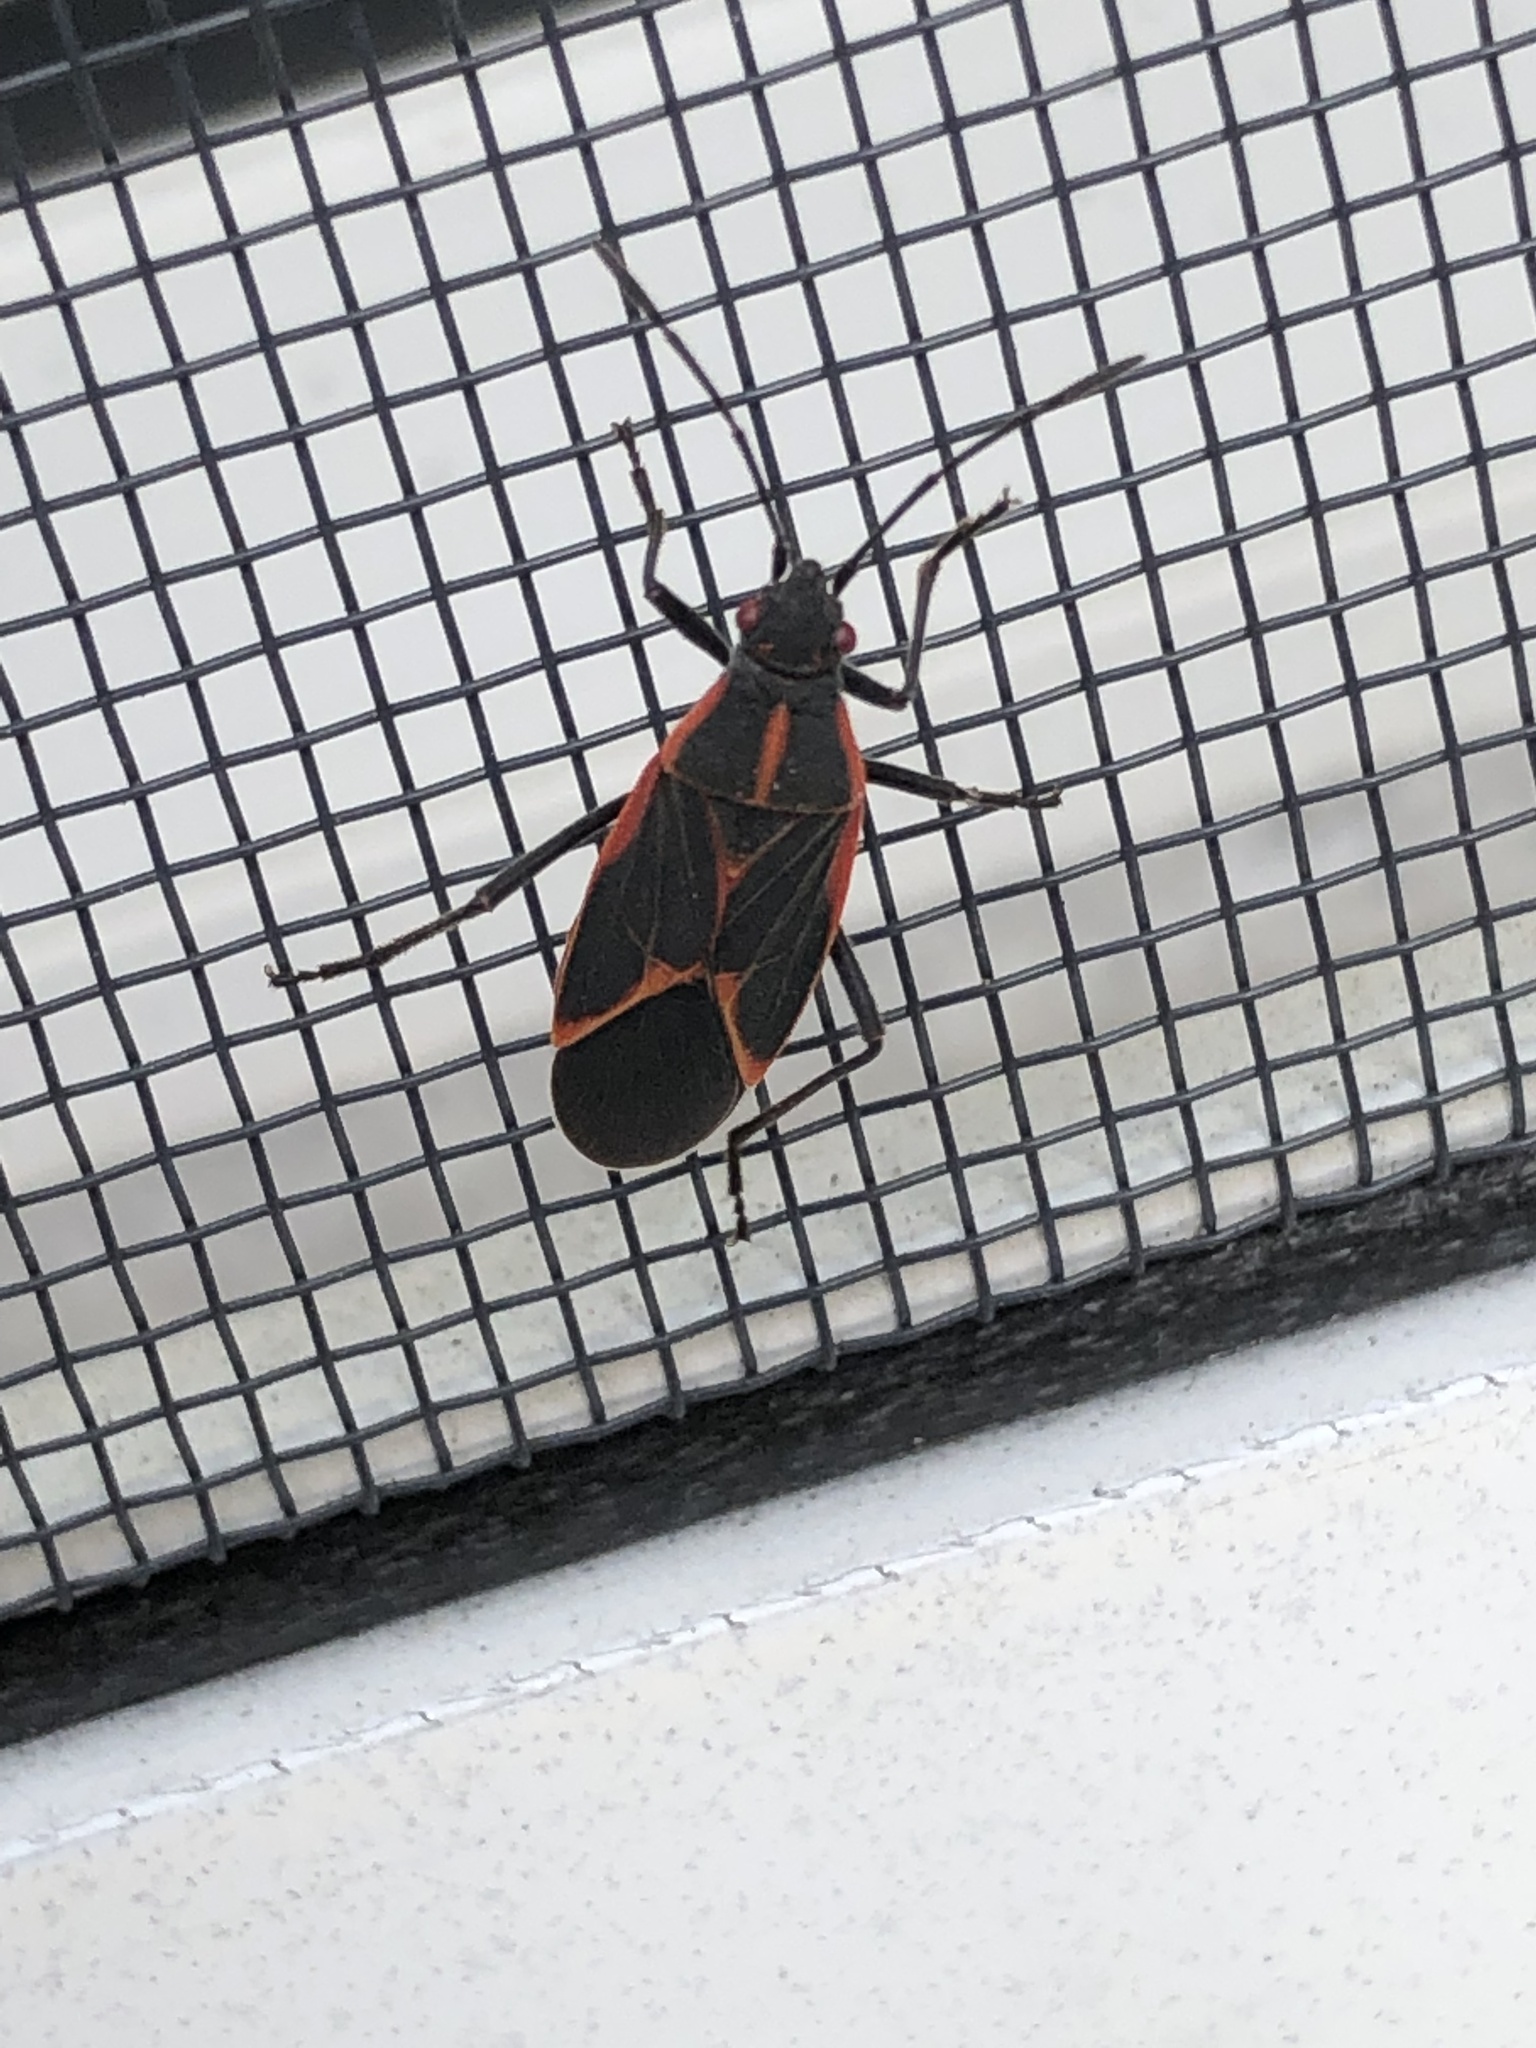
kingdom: Animalia
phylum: Arthropoda
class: Insecta
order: Hemiptera
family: Rhopalidae
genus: Boisea
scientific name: Boisea trivittata
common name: Boxelder bug
